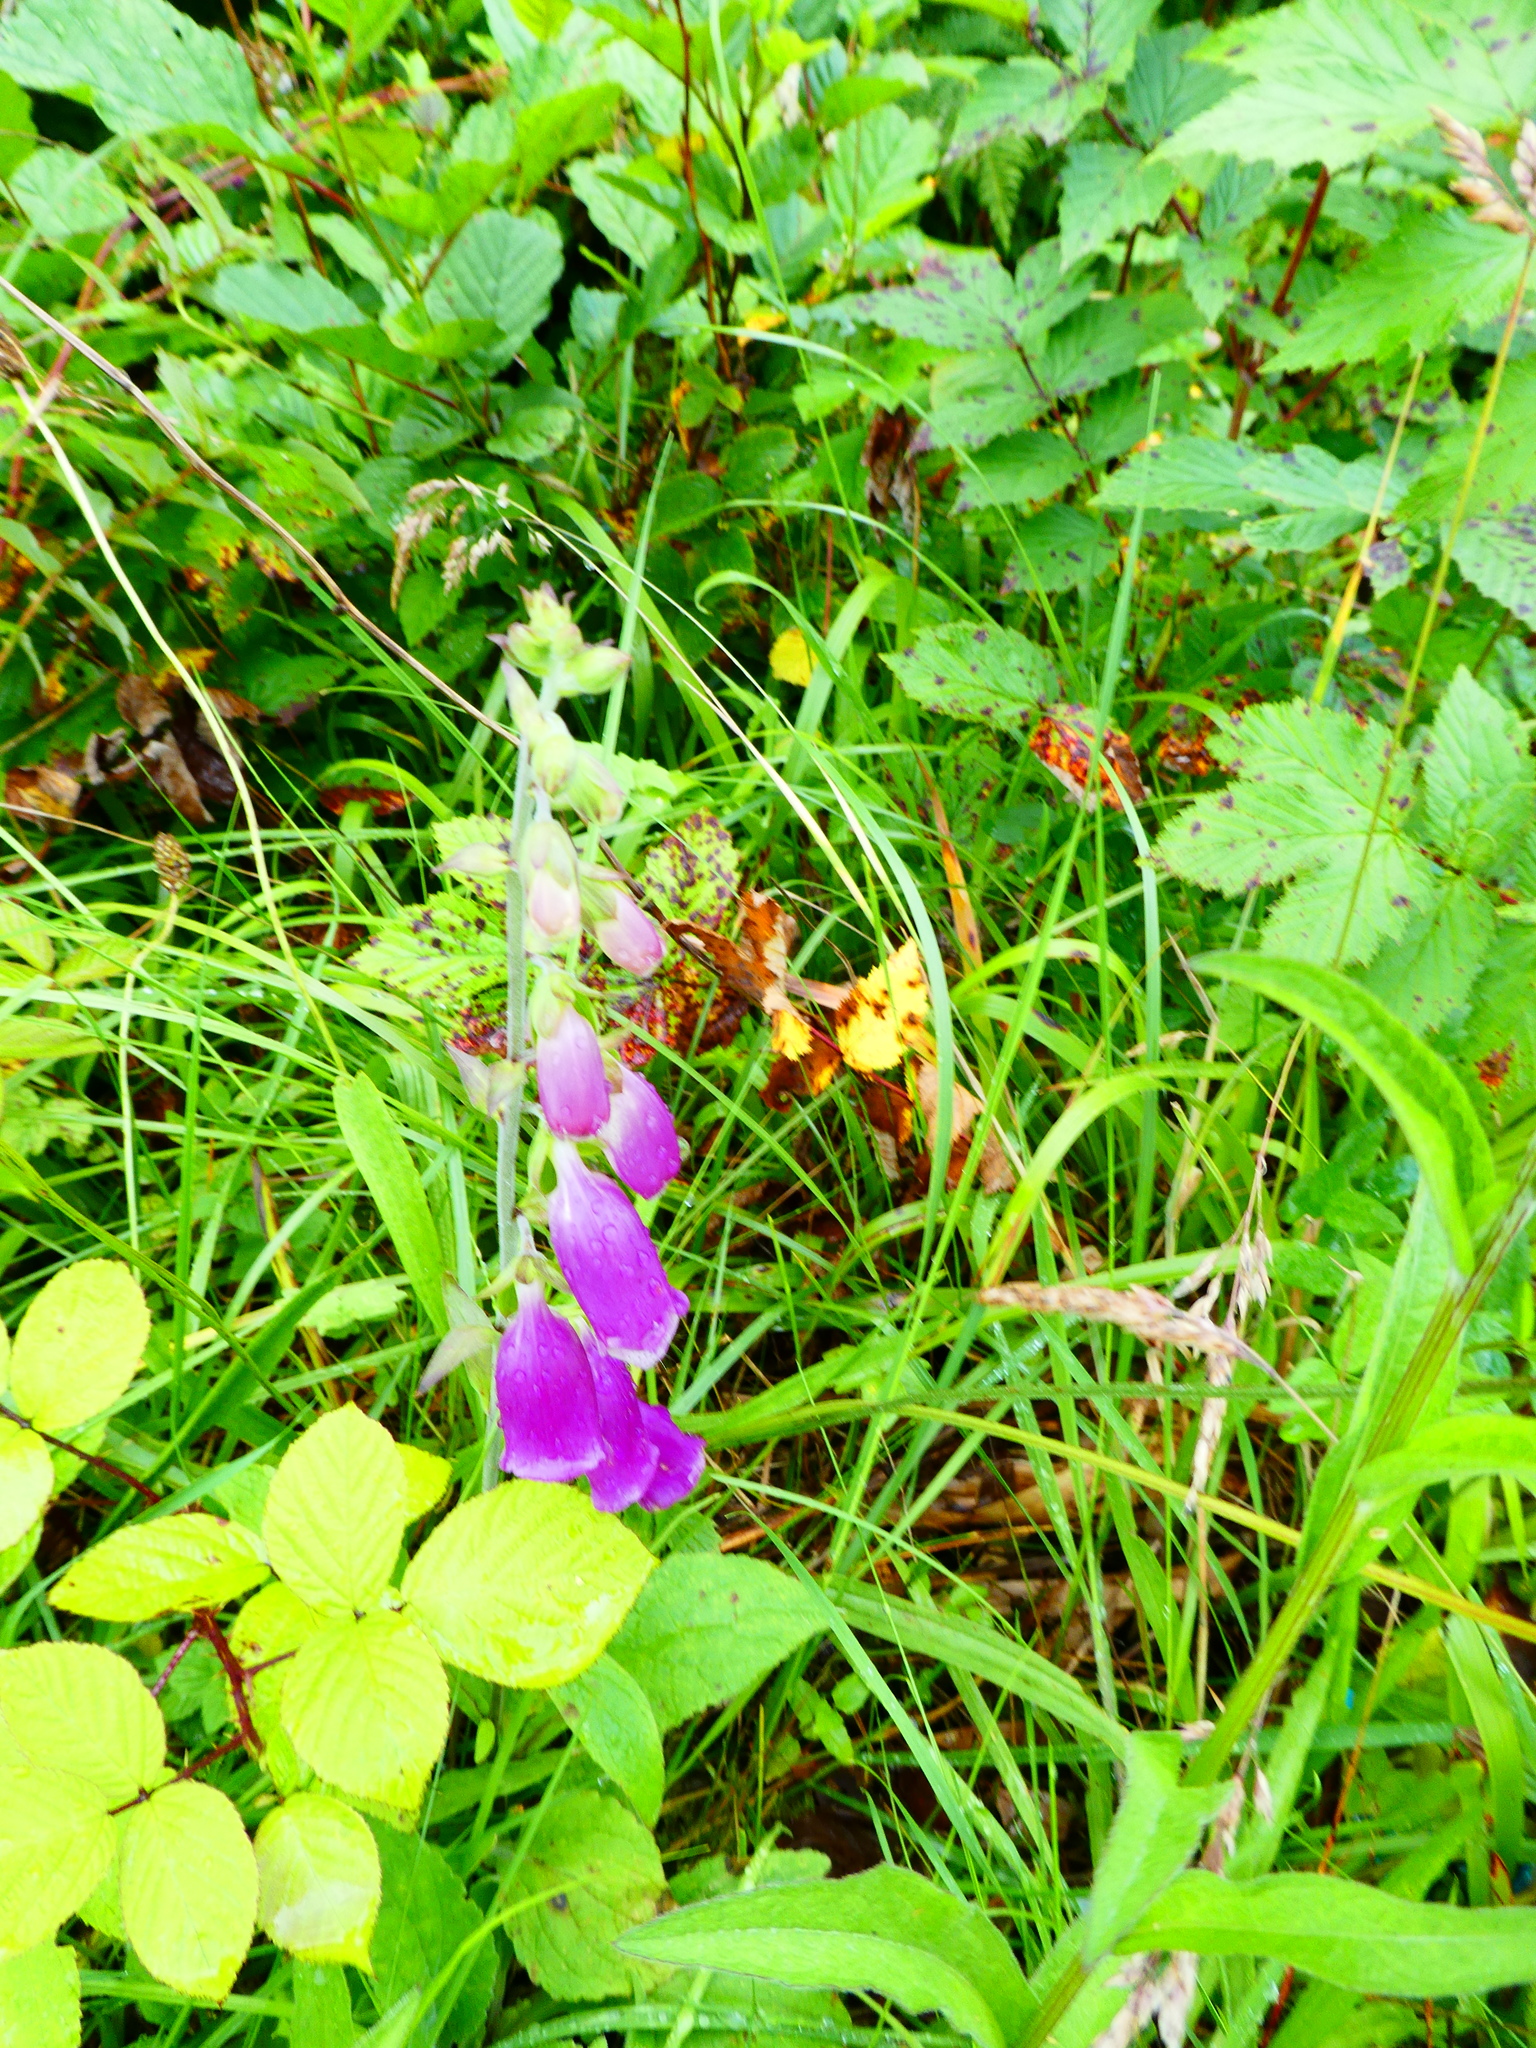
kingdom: Plantae
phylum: Tracheophyta
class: Magnoliopsida
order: Lamiales
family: Plantaginaceae
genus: Digitalis
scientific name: Digitalis purpurea
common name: Foxglove
